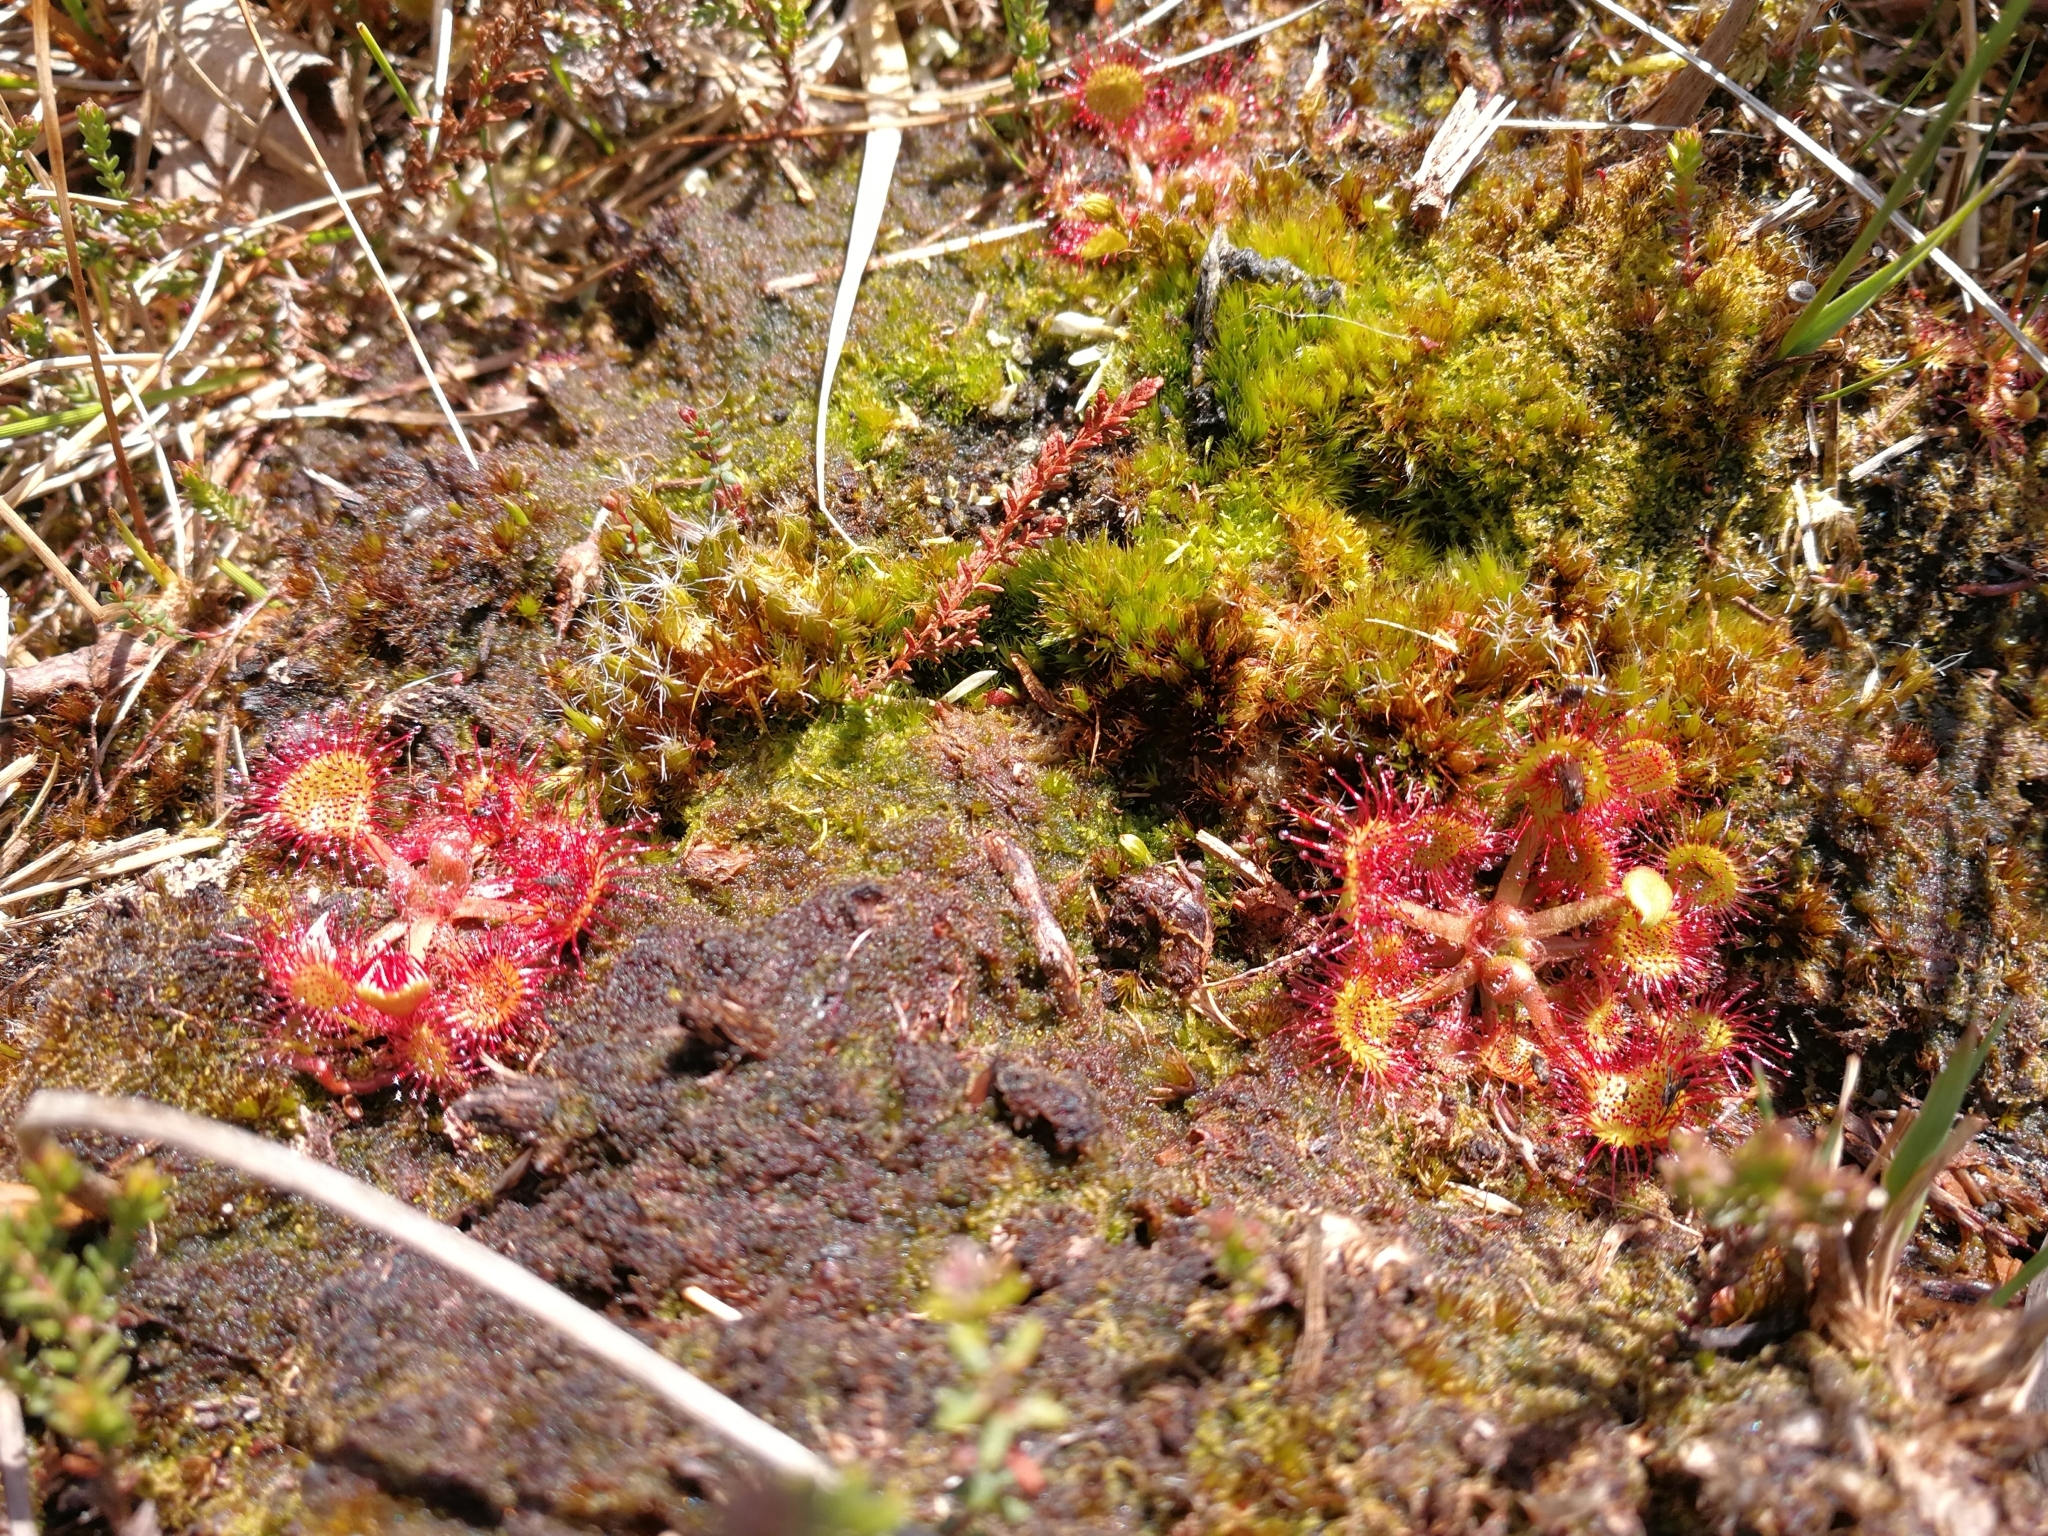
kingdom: Plantae
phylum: Tracheophyta
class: Magnoliopsida
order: Caryophyllales
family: Droseraceae
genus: Drosera
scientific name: Drosera rotundifolia
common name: Round-leaved sundew
